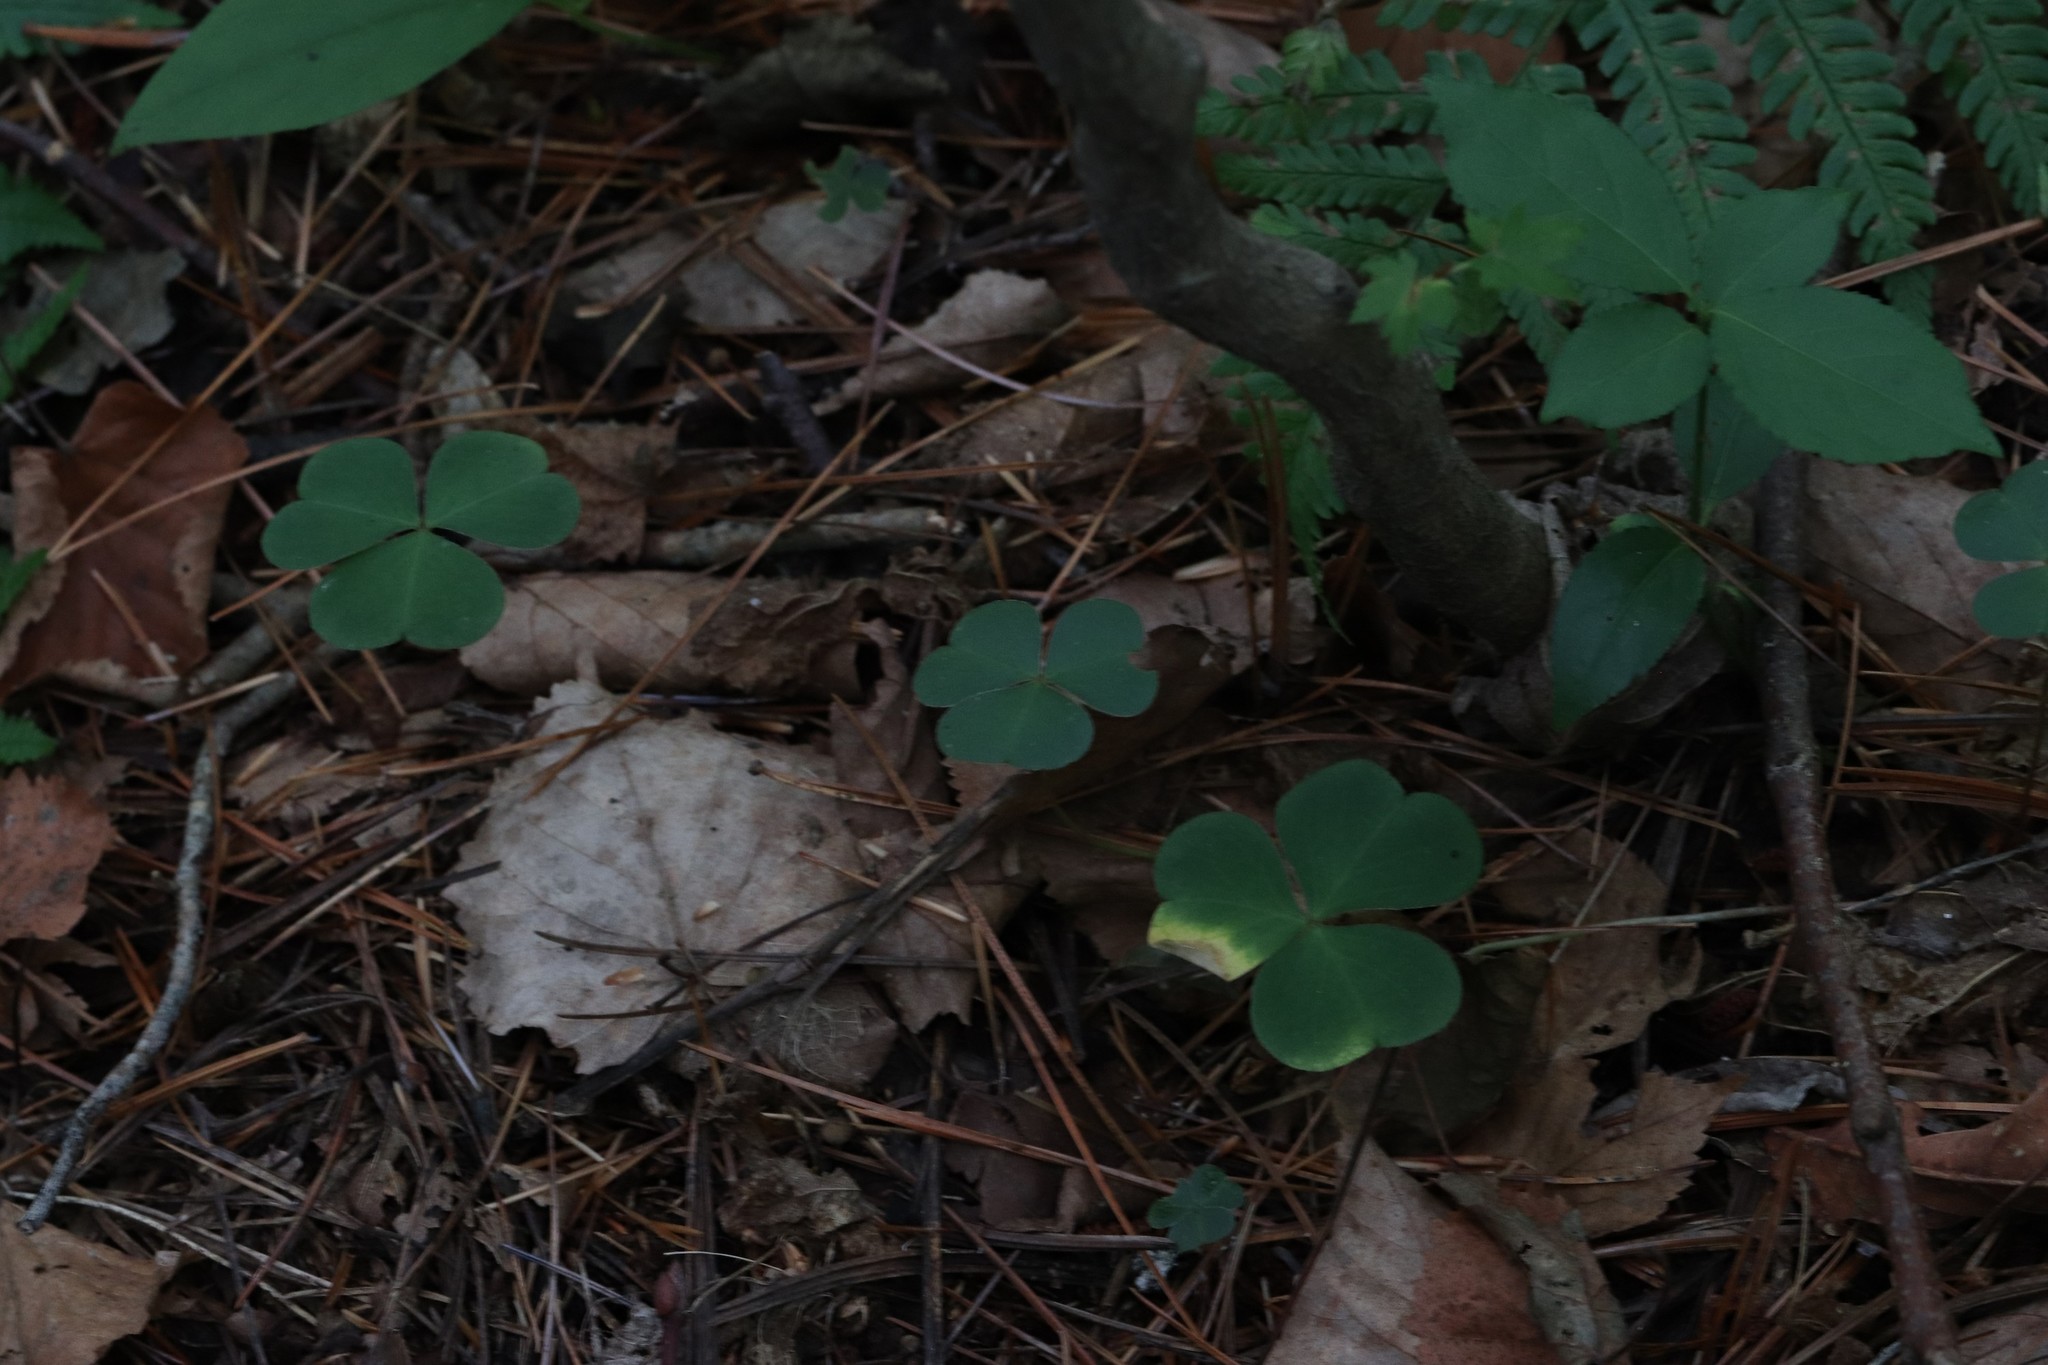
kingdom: Plantae
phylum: Tracheophyta
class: Magnoliopsida
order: Oxalidales
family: Oxalidaceae
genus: Oxalis
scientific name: Oxalis acetosella
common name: Wood-sorrel
